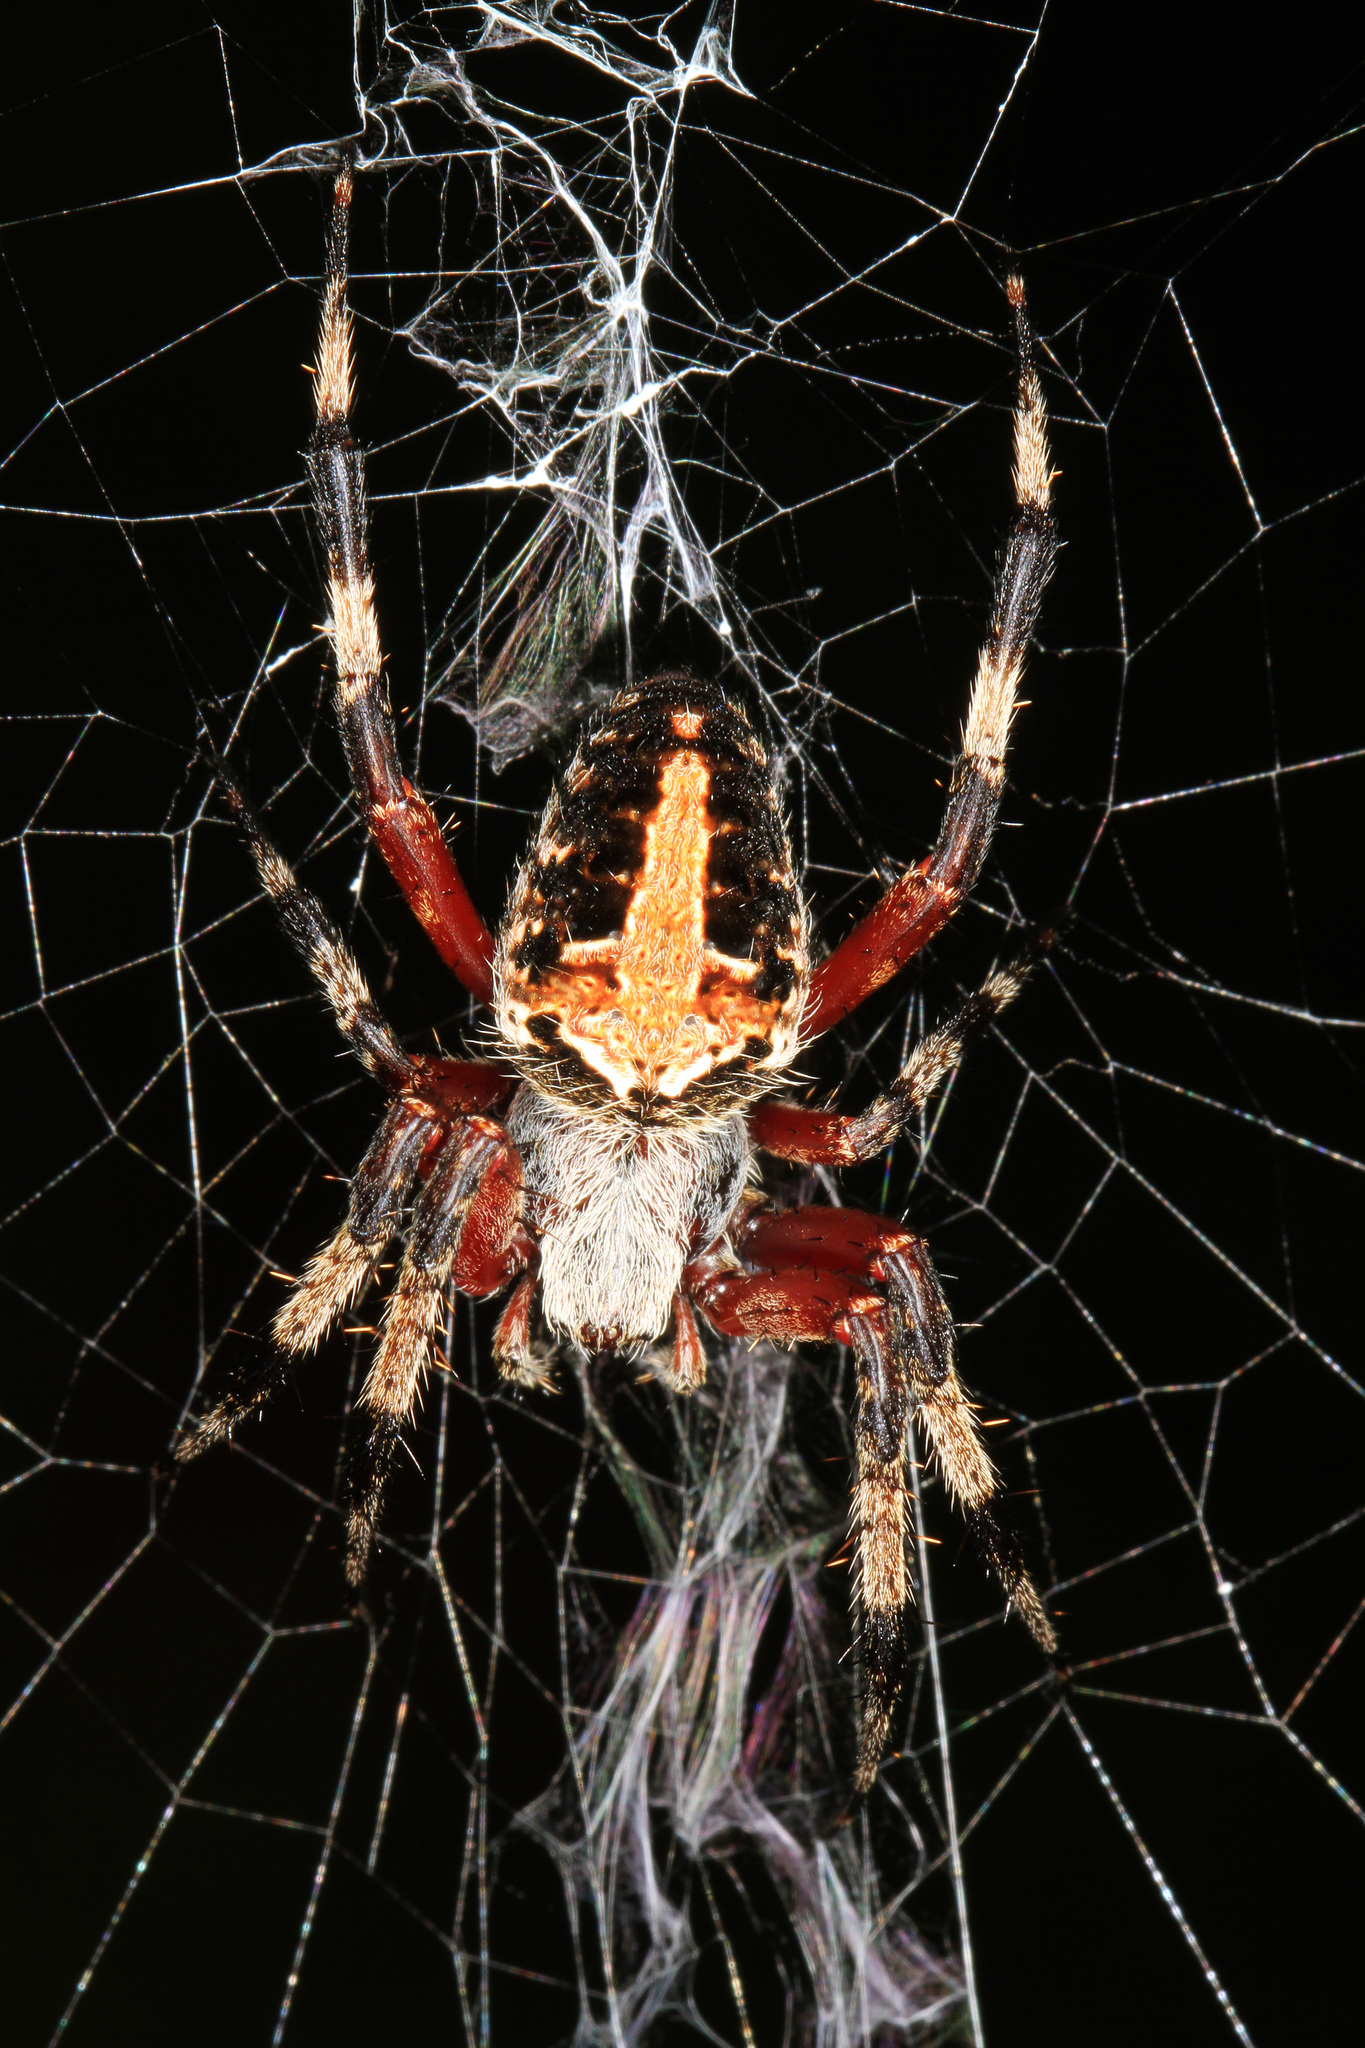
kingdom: Animalia
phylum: Arthropoda
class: Arachnida
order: Araneae
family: Araneidae
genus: Neoscona
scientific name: Neoscona domiciliorum
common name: Red-femured spotted orbweaver
